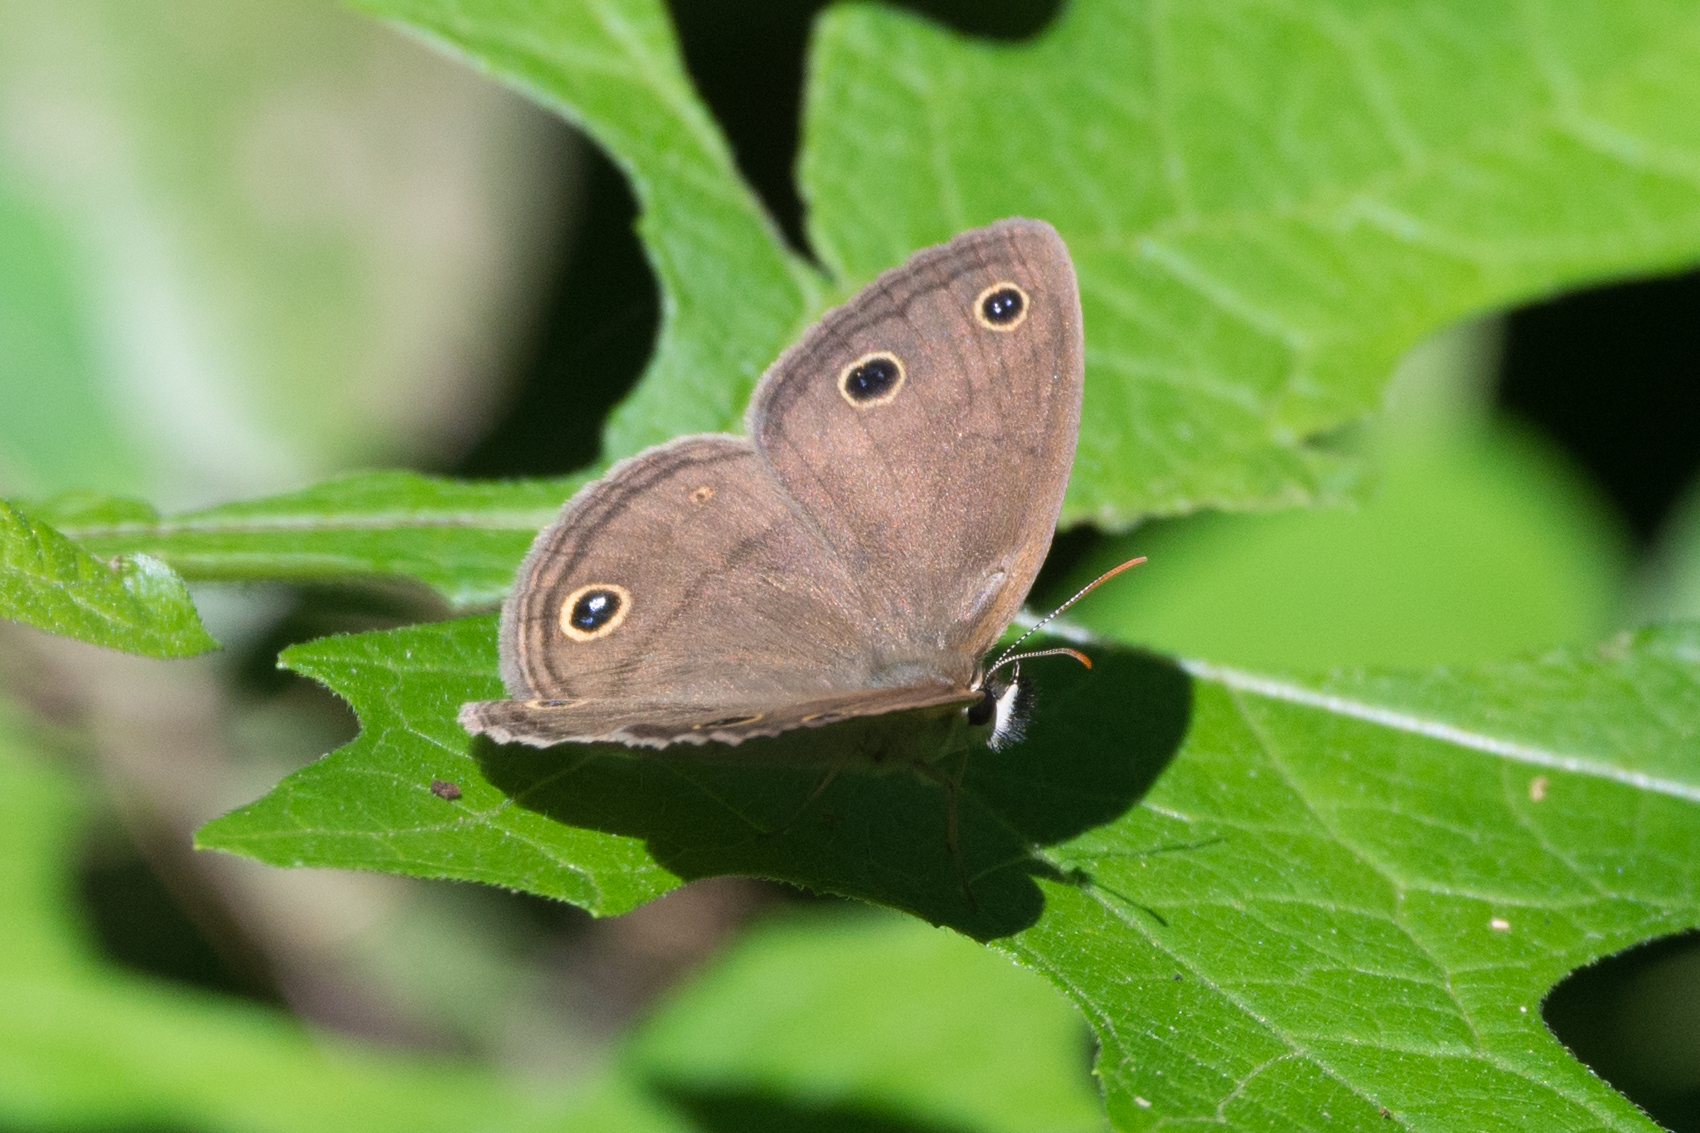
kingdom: Animalia
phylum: Arthropoda
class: Insecta
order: Lepidoptera
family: Nymphalidae
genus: Euptychia
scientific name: Euptychia cymela
